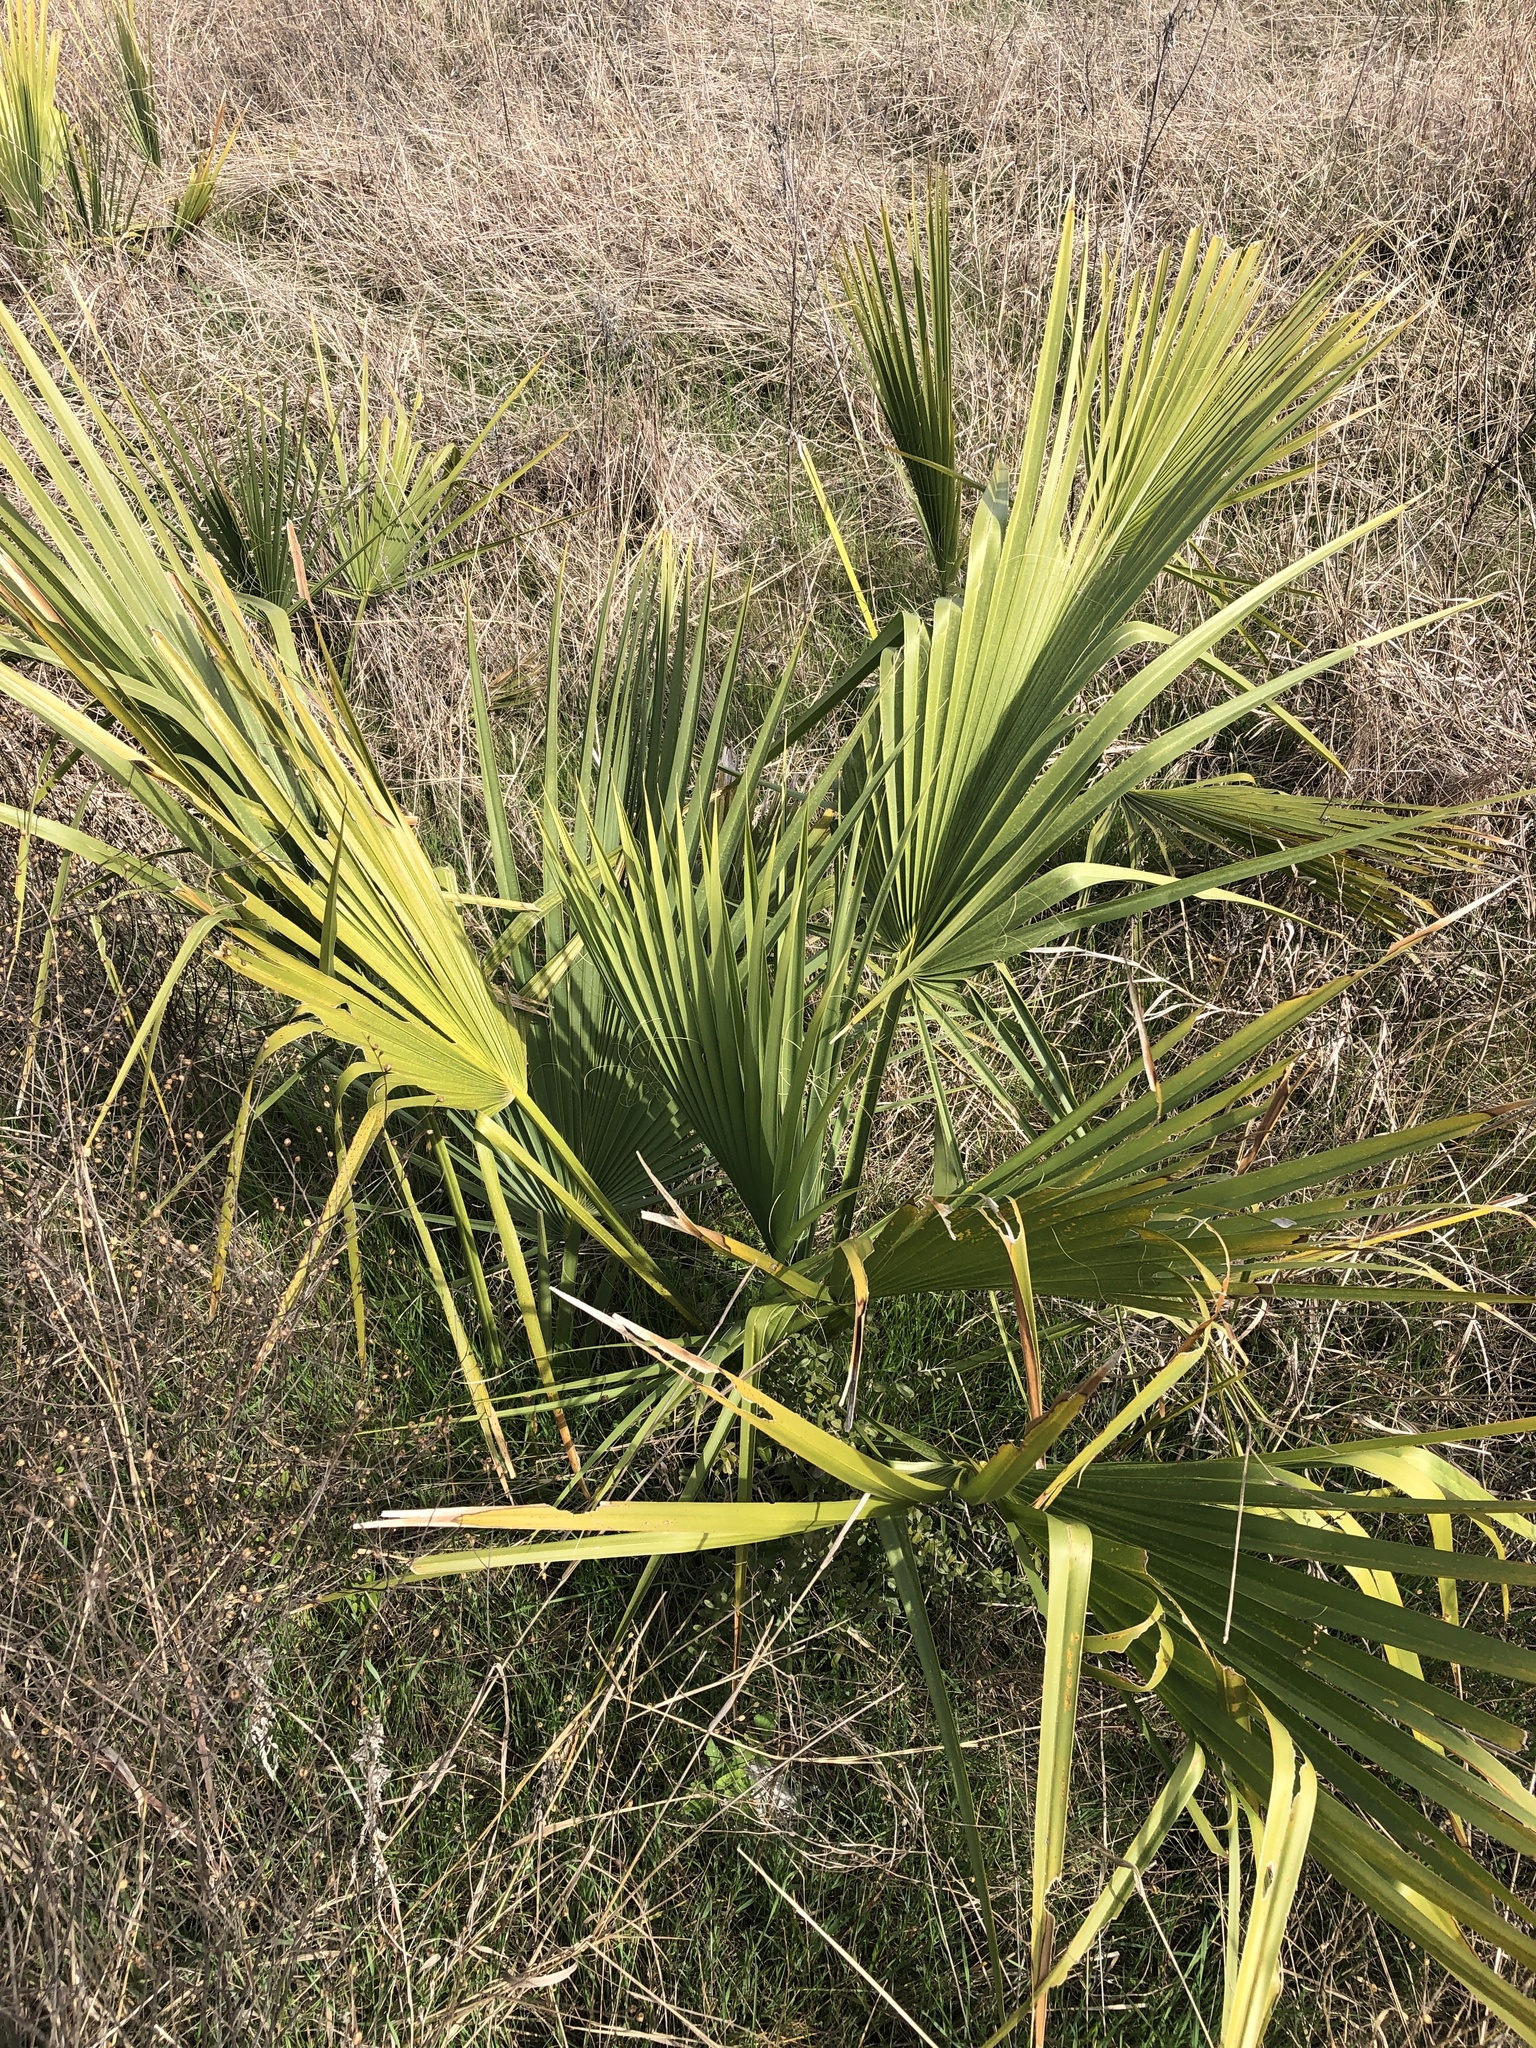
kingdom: Plantae
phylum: Tracheophyta
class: Liliopsida
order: Arecales
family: Arecaceae
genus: Sabal
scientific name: Sabal minor
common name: Dwarf palmetto
